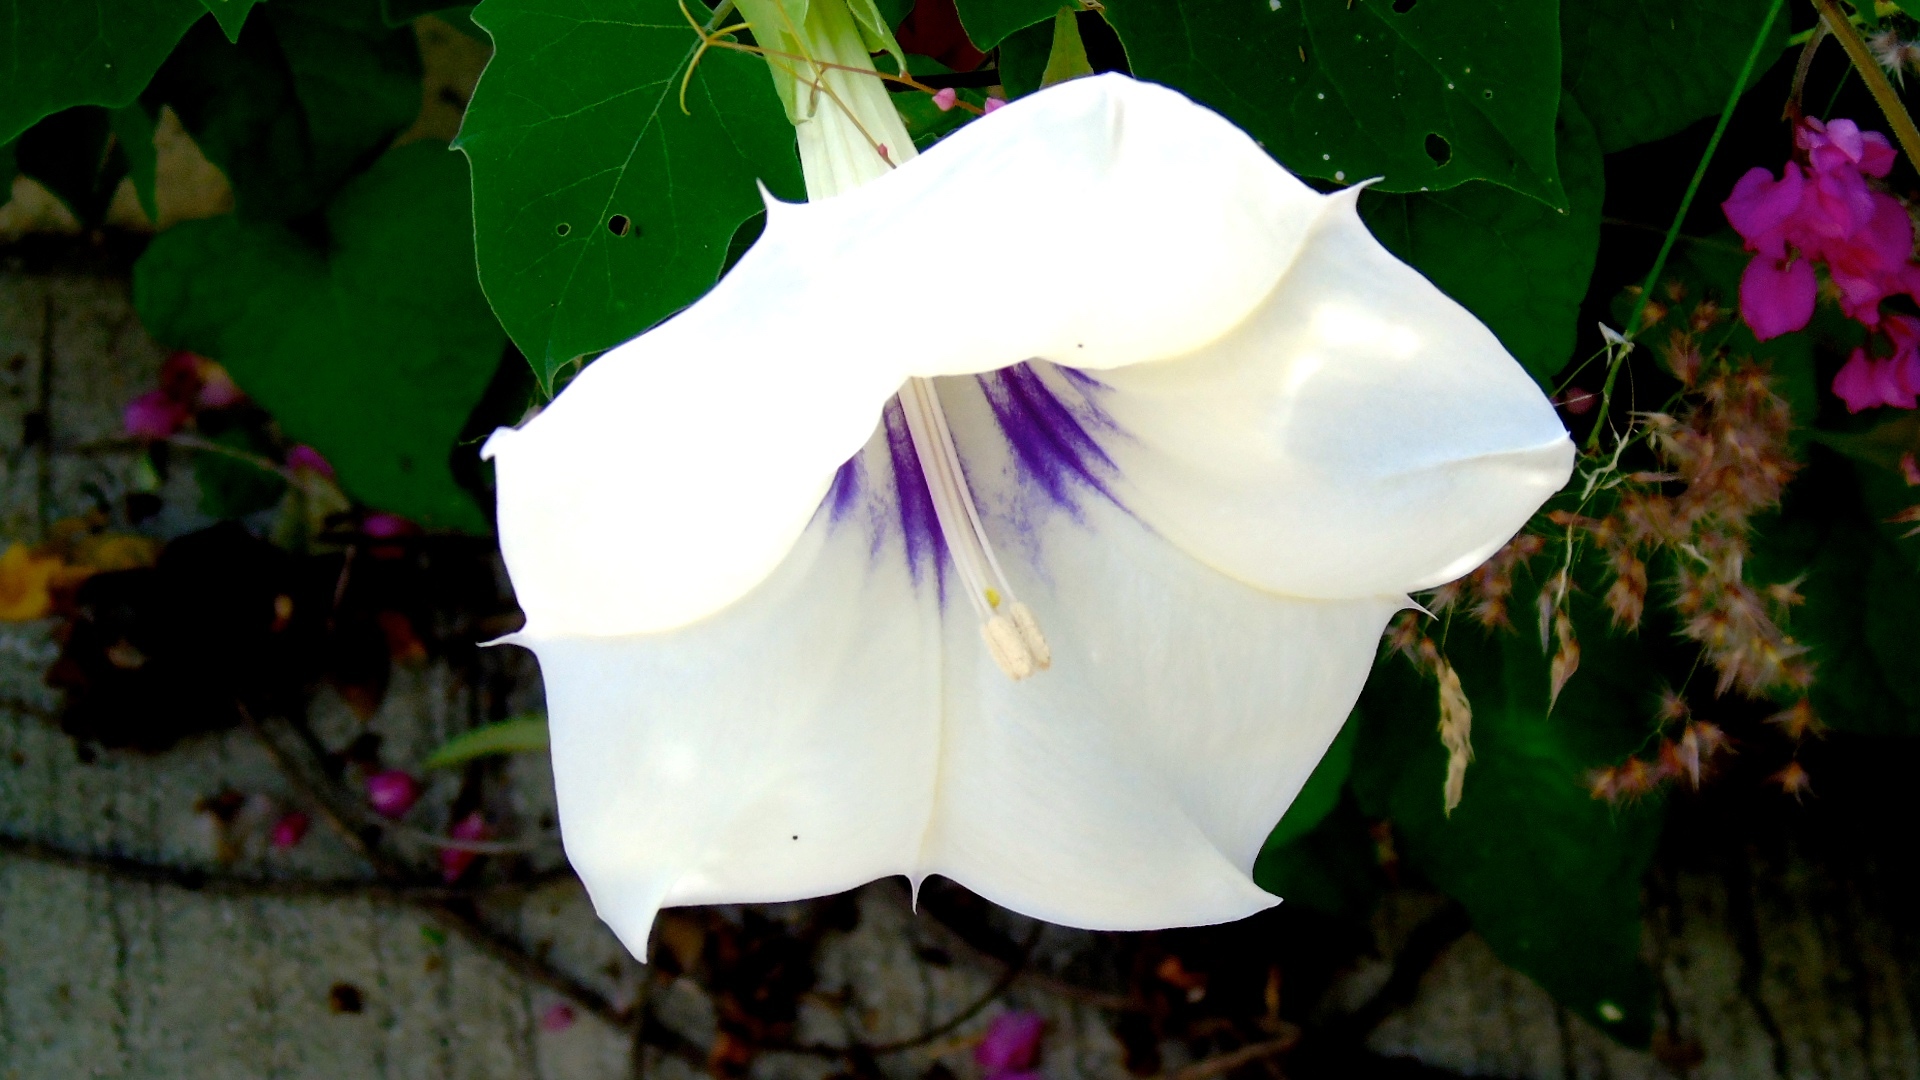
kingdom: Plantae
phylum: Tracheophyta
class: Magnoliopsida
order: Solanales
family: Solanaceae
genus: Datura
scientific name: Datura discolor
